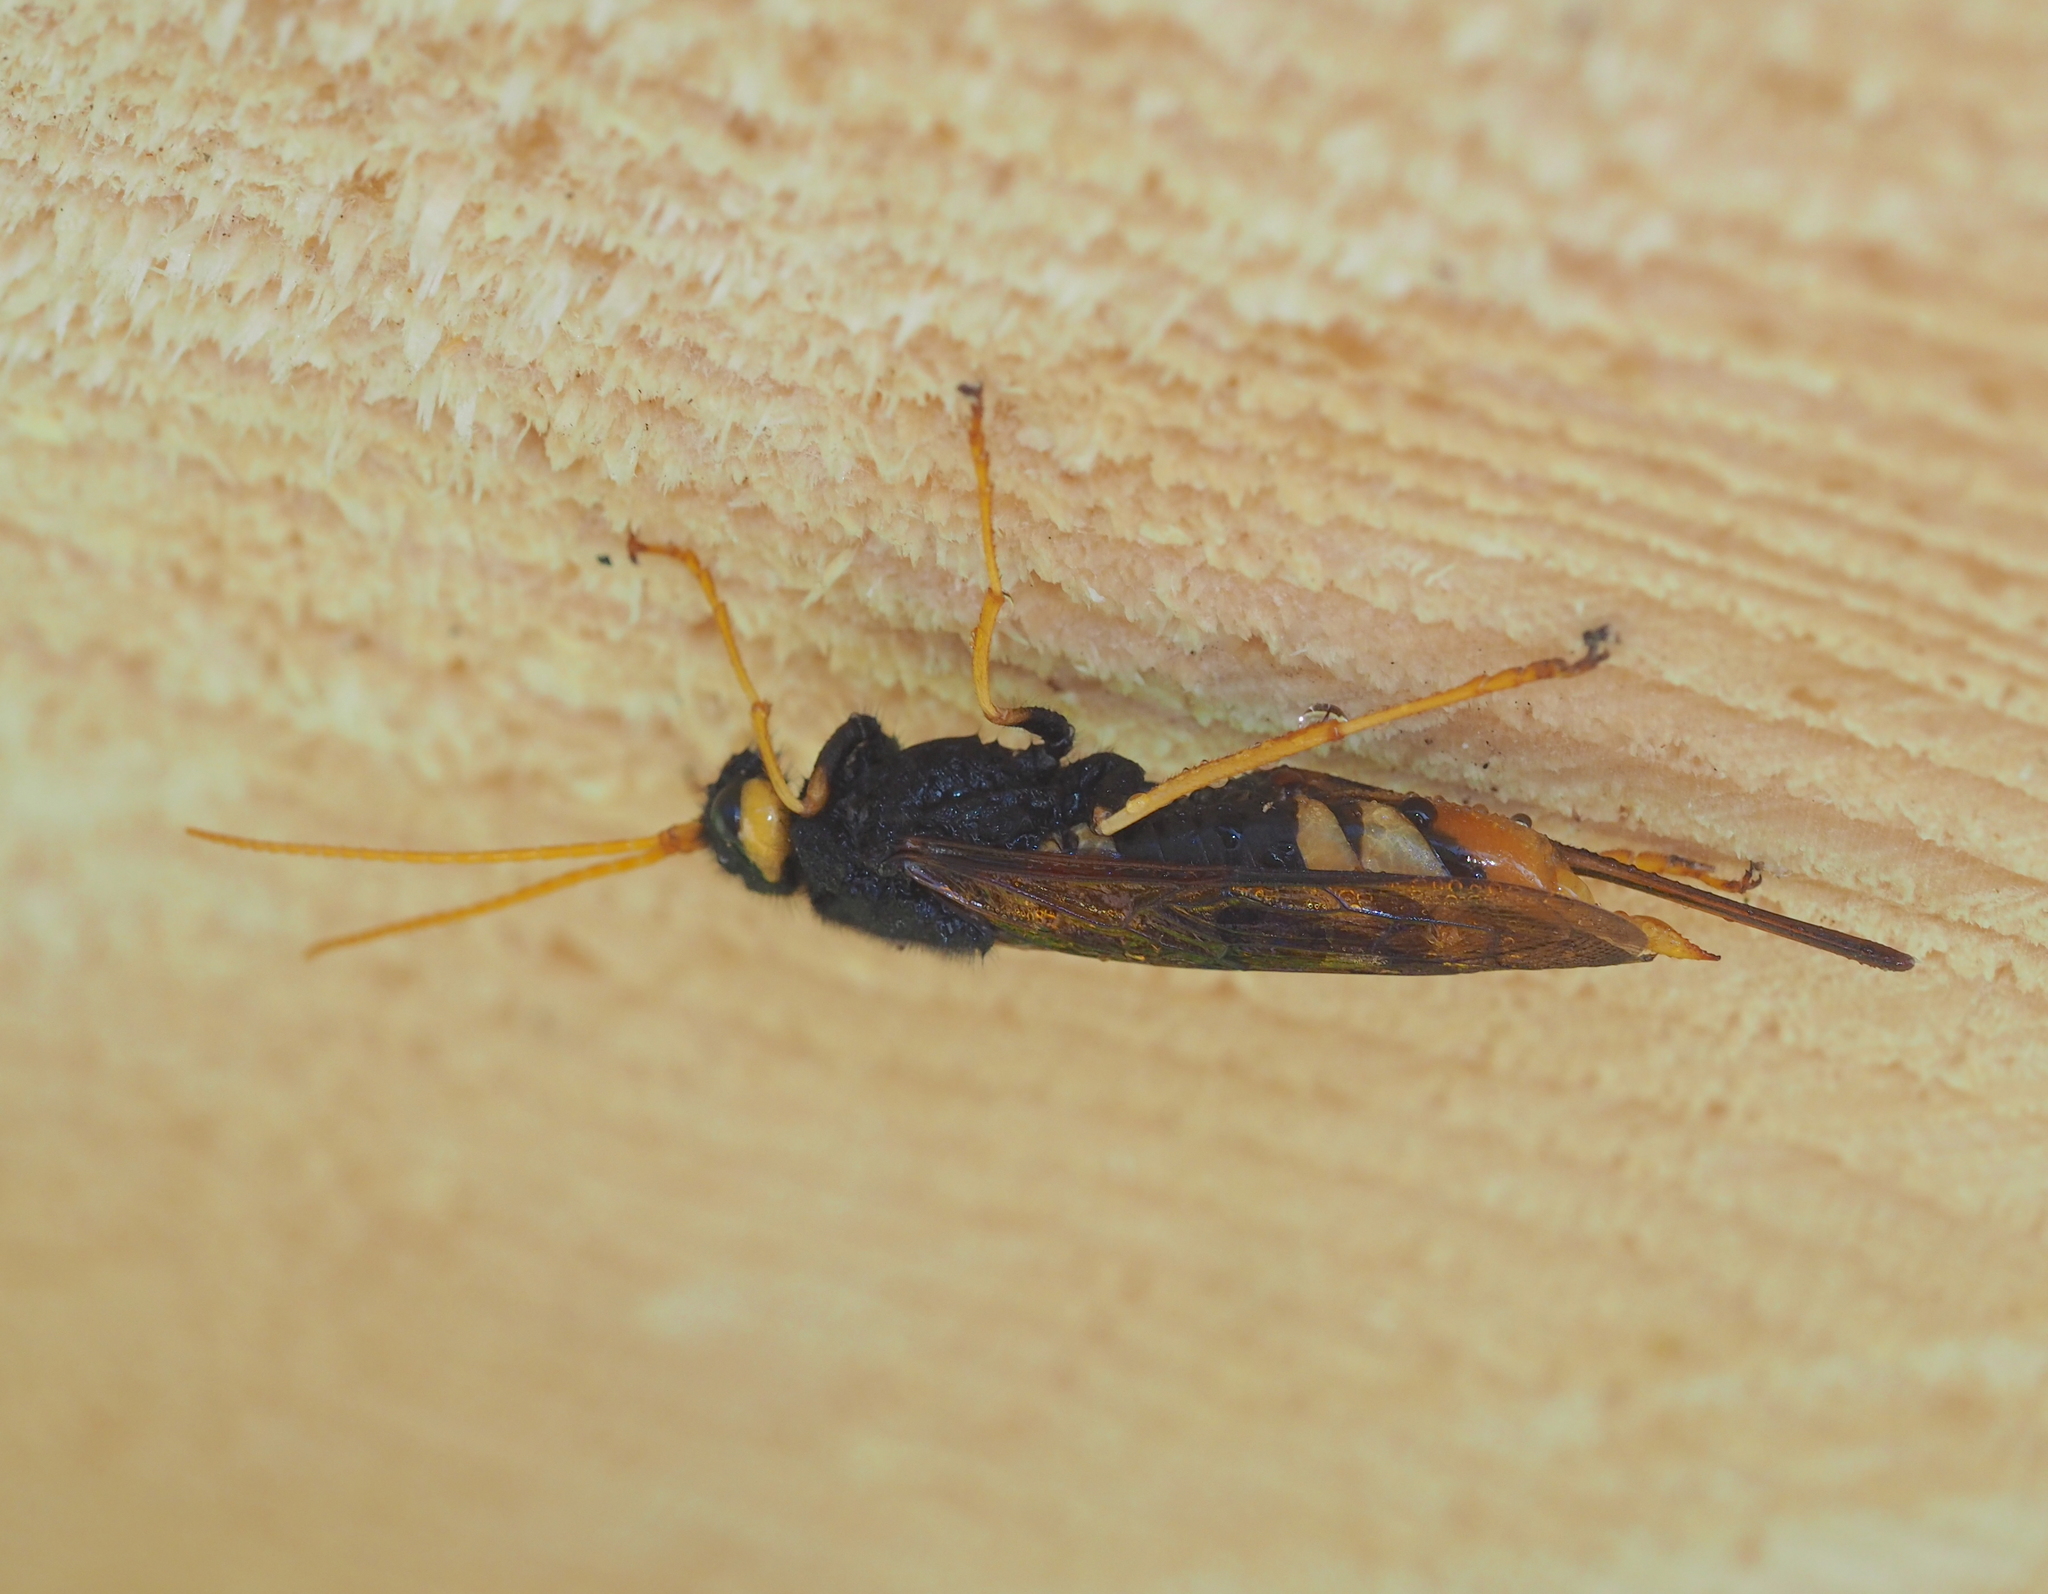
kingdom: Animalia
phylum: Arthropoda
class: Insecta
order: Hymenoptera
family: Siricidae
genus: Urocerus
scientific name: Urocerus gigas
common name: Giant woodwasp
